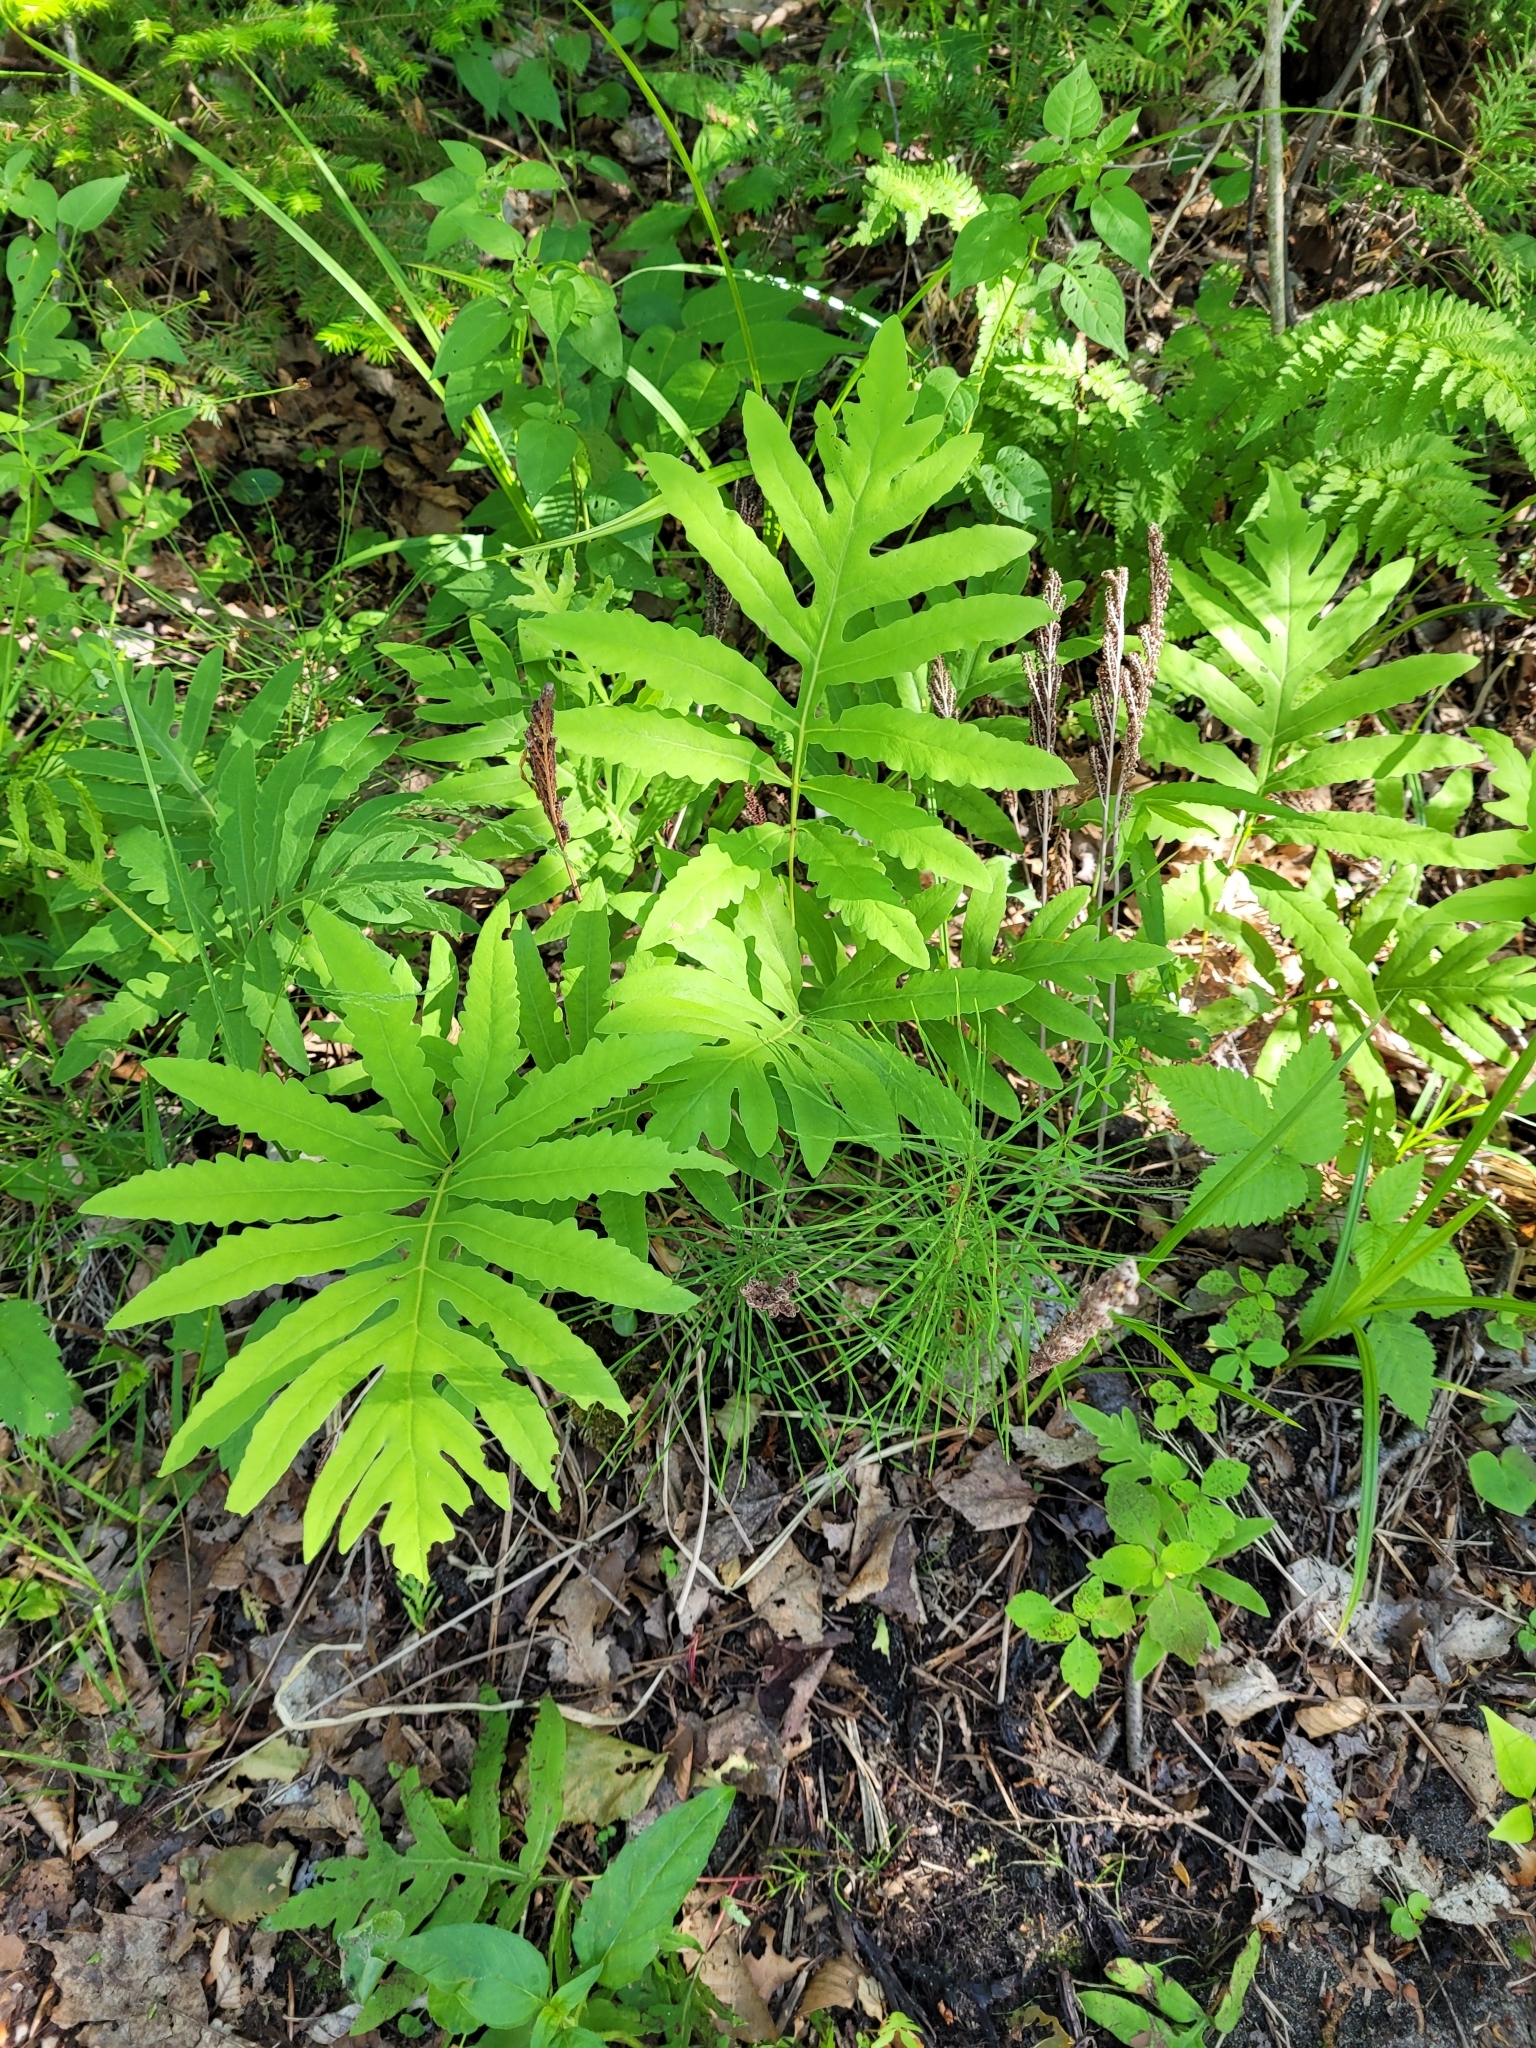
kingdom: Plantae
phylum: Tracheophyta
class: Polypodiopsida
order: Polypodiales
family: Onocleaceae
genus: Onoclea
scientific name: Onoclea sensibilis
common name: Sensitive fern
